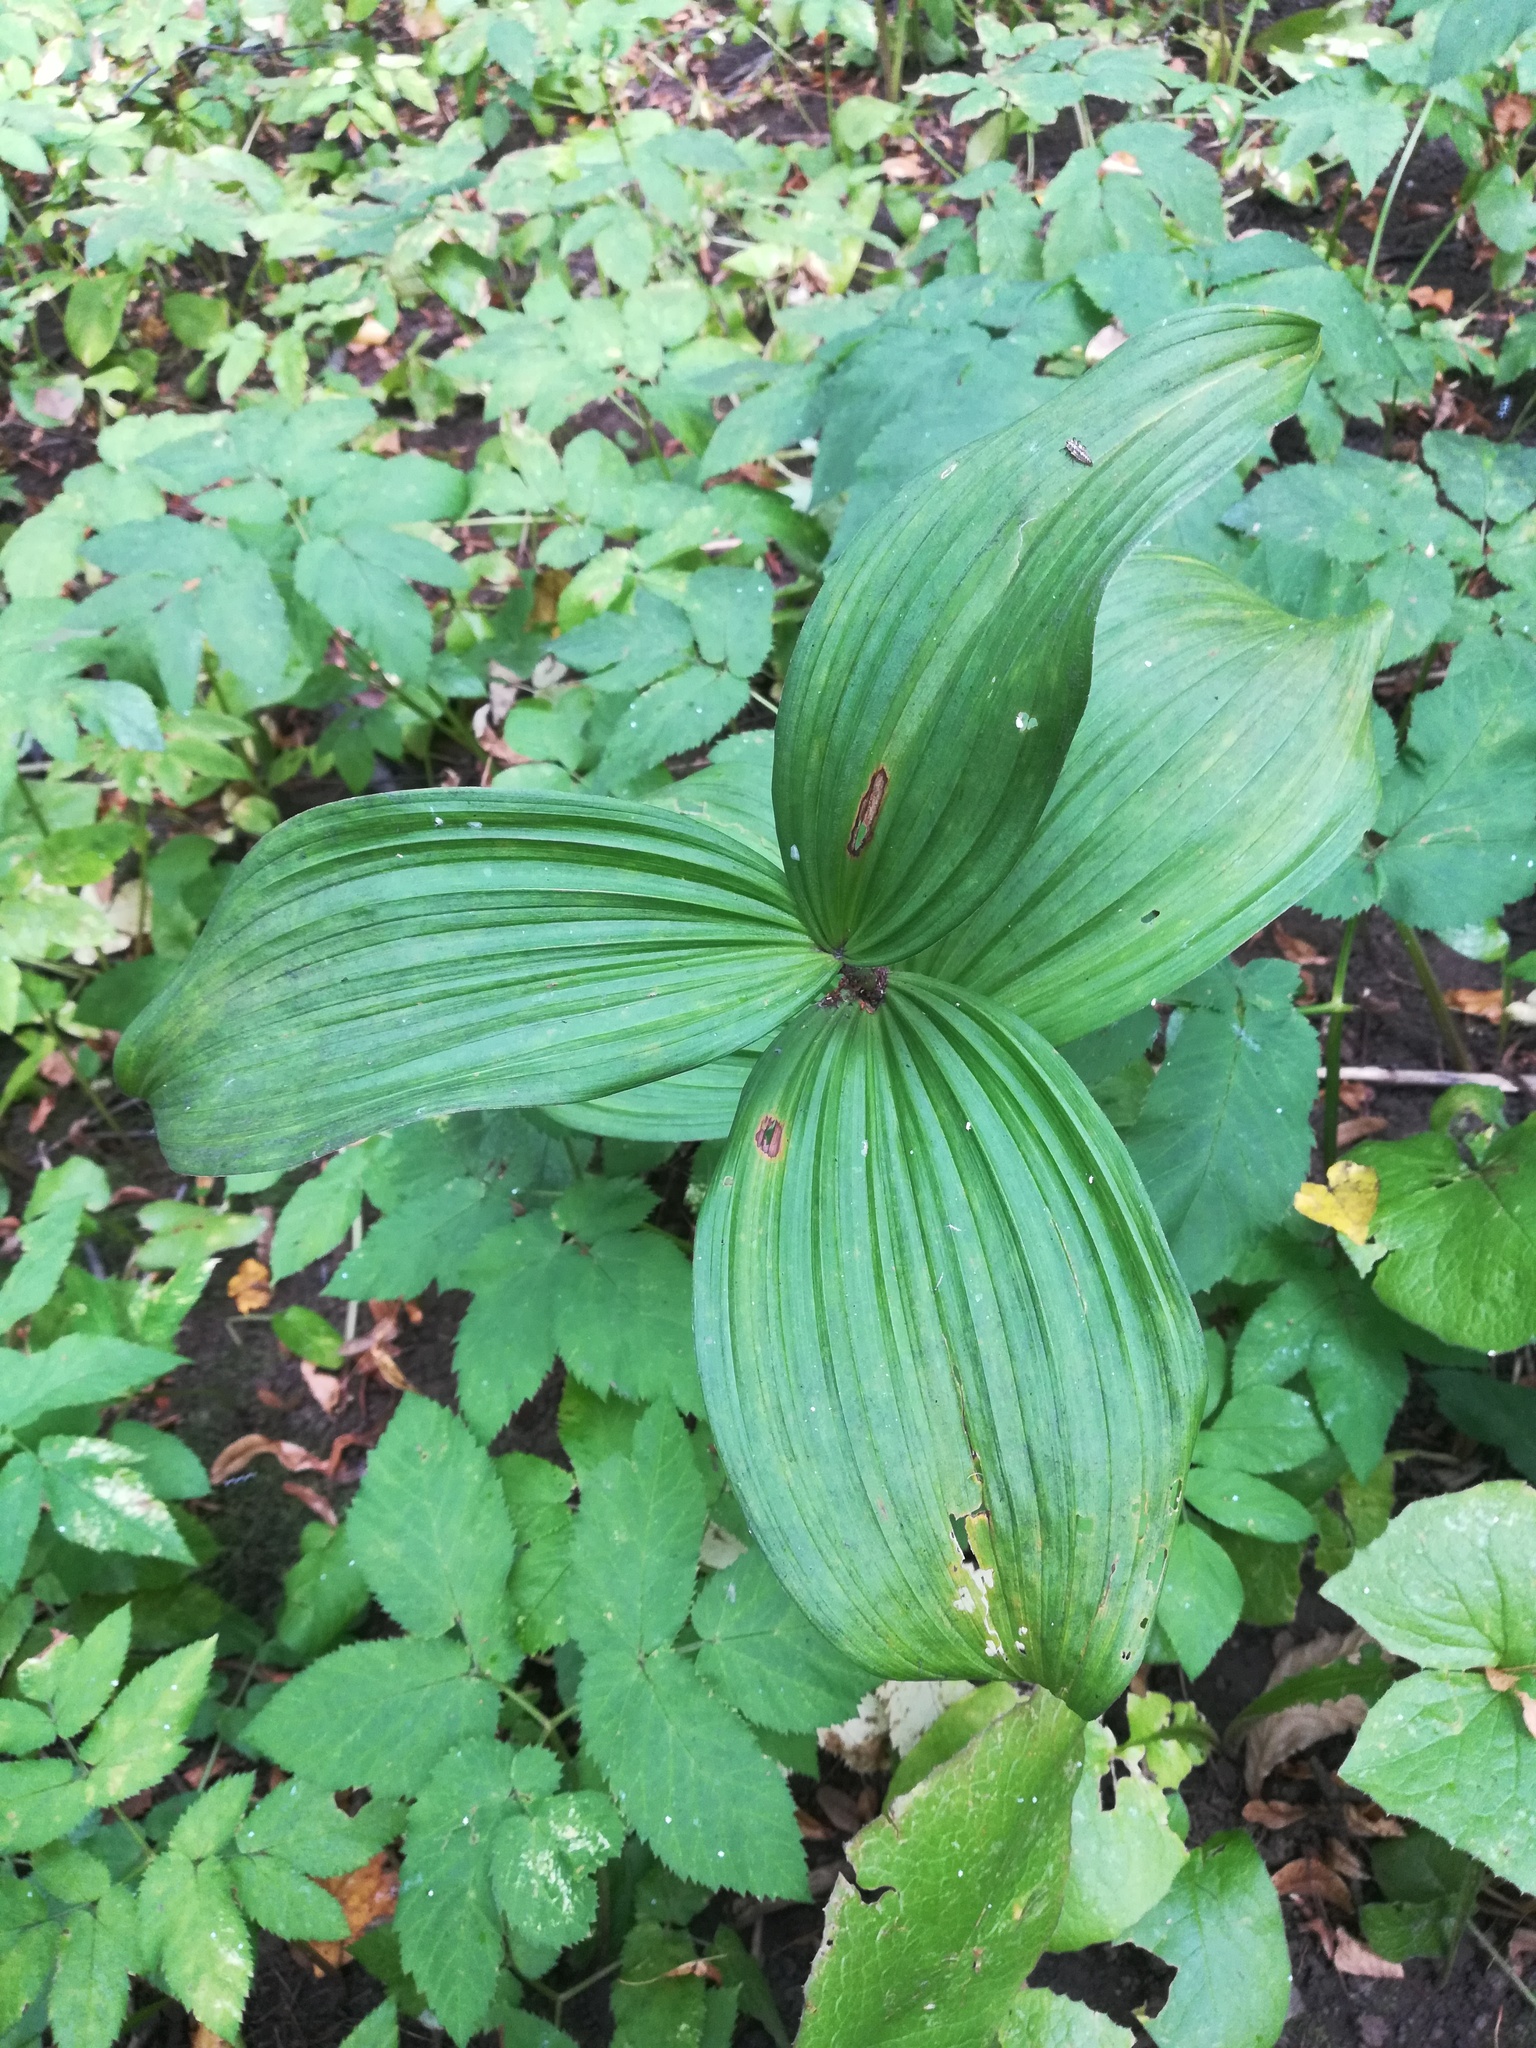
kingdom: Plantae
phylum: Tracheophyta
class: Liliopsida
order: Liliales
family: Melanthiaceae
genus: Veratrum
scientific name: Veratrum lobelianum
